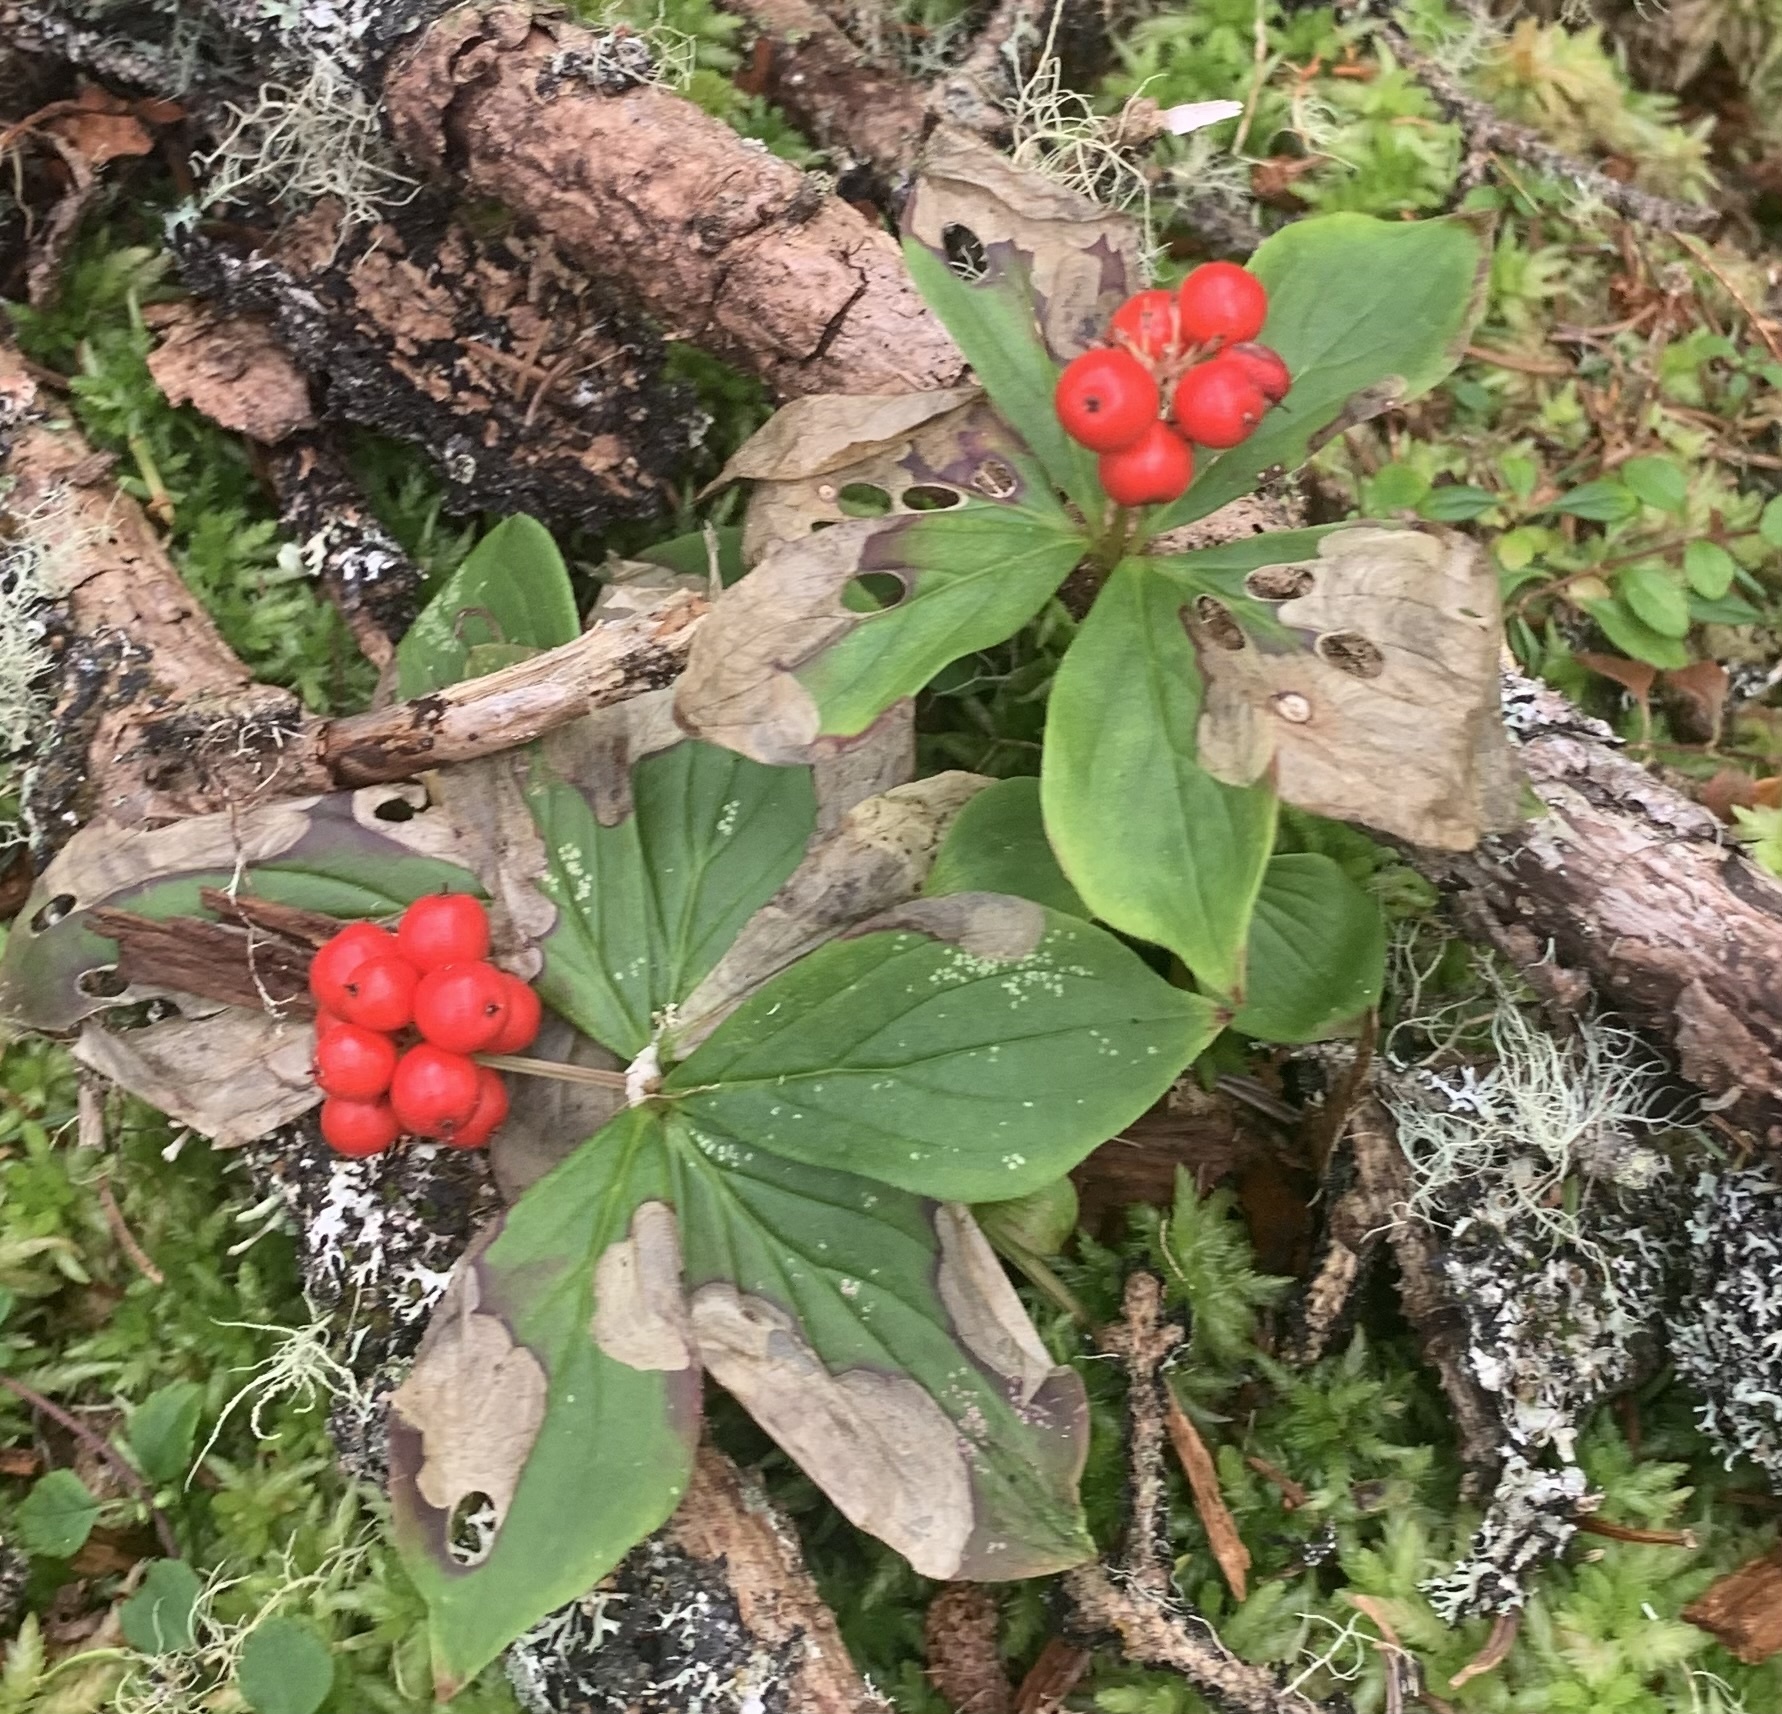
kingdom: Plantae
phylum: Tracheophyta
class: Magnoliopsida
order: Cornales
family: Cornaceae
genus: Cornus
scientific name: Cornus canadensis
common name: Creeping dogwood
